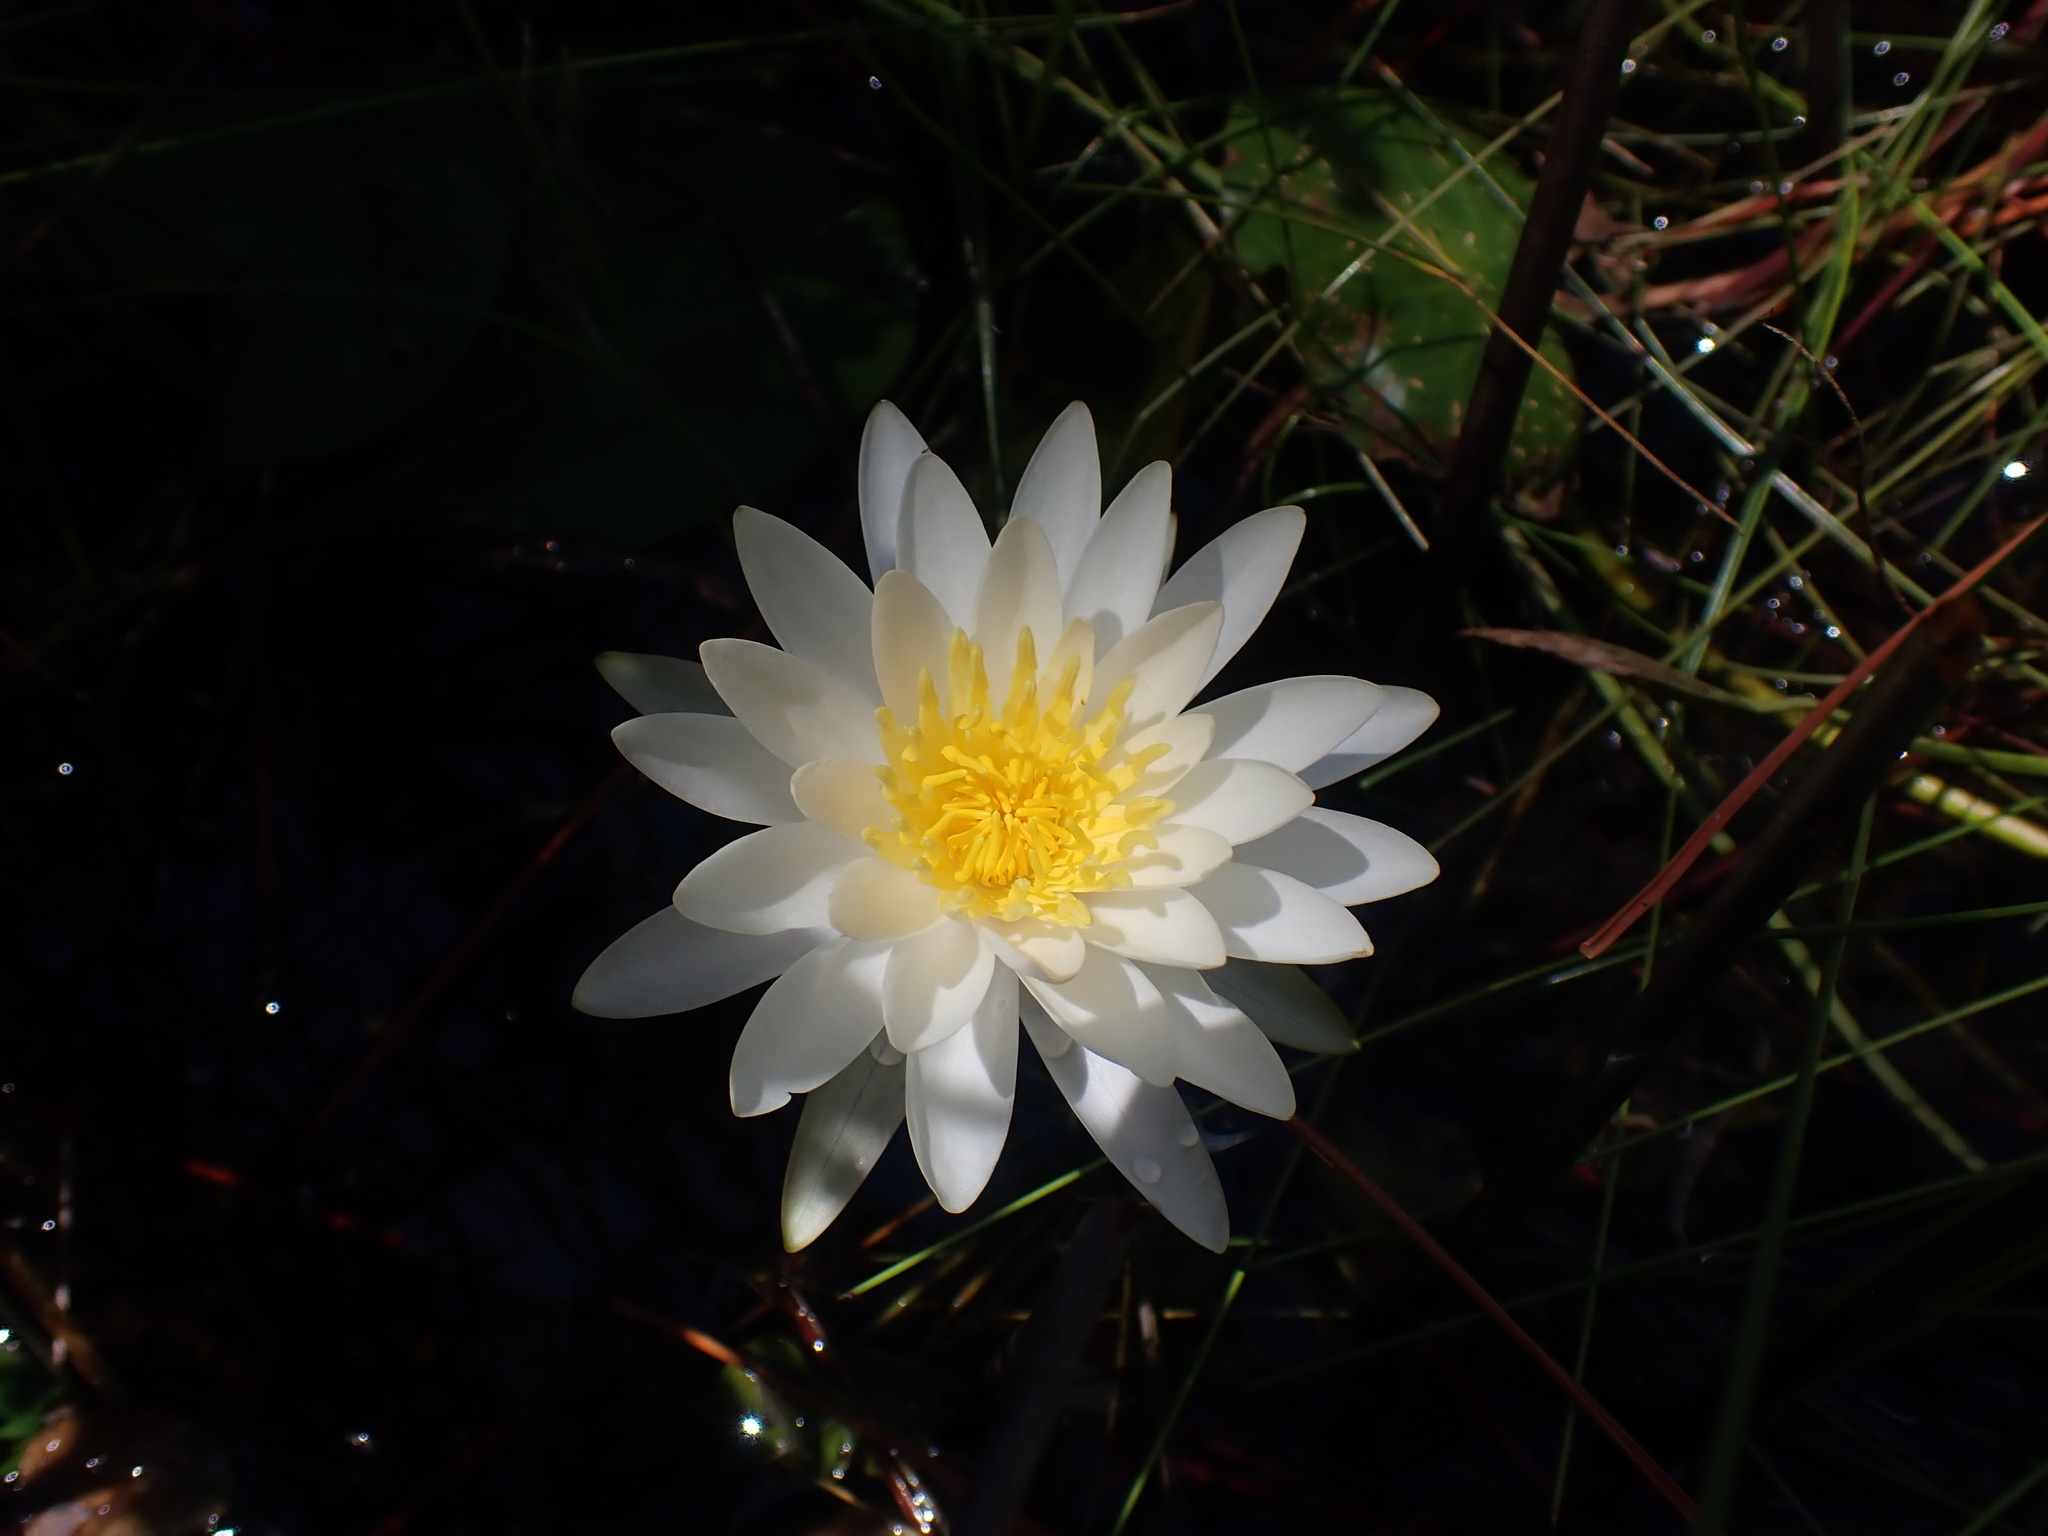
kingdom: Plantae
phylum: Tracheophyta
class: Magnoliopsida
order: Nymphaeales
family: Nymphaeaceae
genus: Nymphaea
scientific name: Nymphaea odorata
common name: Fragrant water-lily
